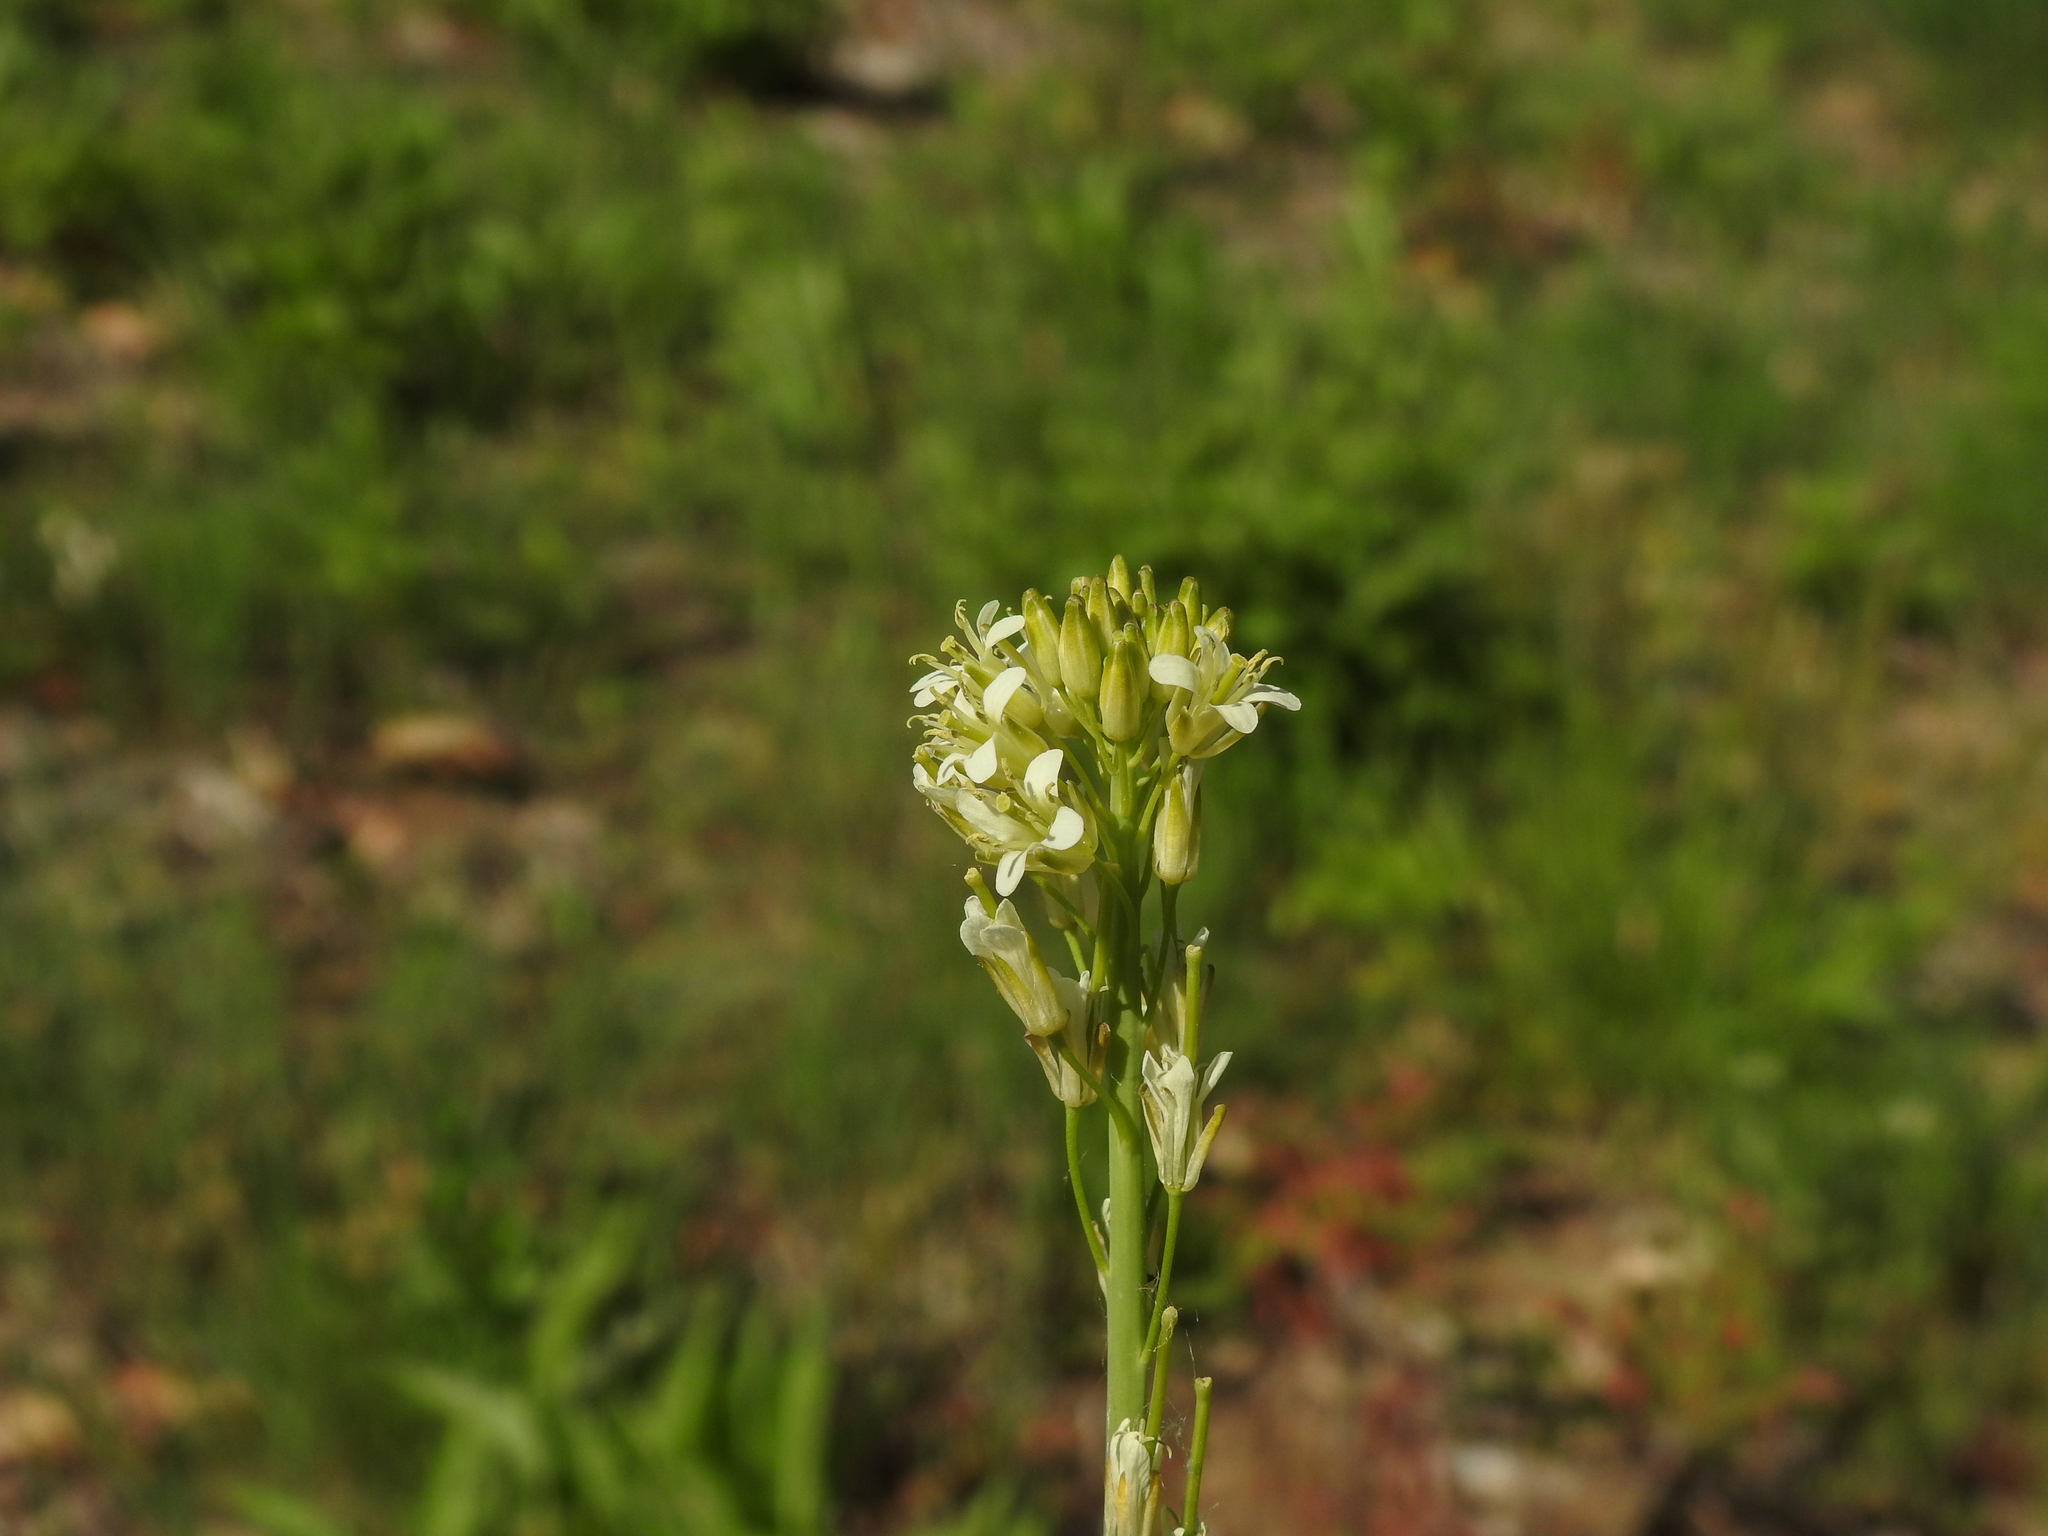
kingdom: Plantae
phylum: Tracheophyta
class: Magnoliopsida
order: Brassicales
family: Brassicaceae
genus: Turritis
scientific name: Turritis glabra
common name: Tower rockcress
